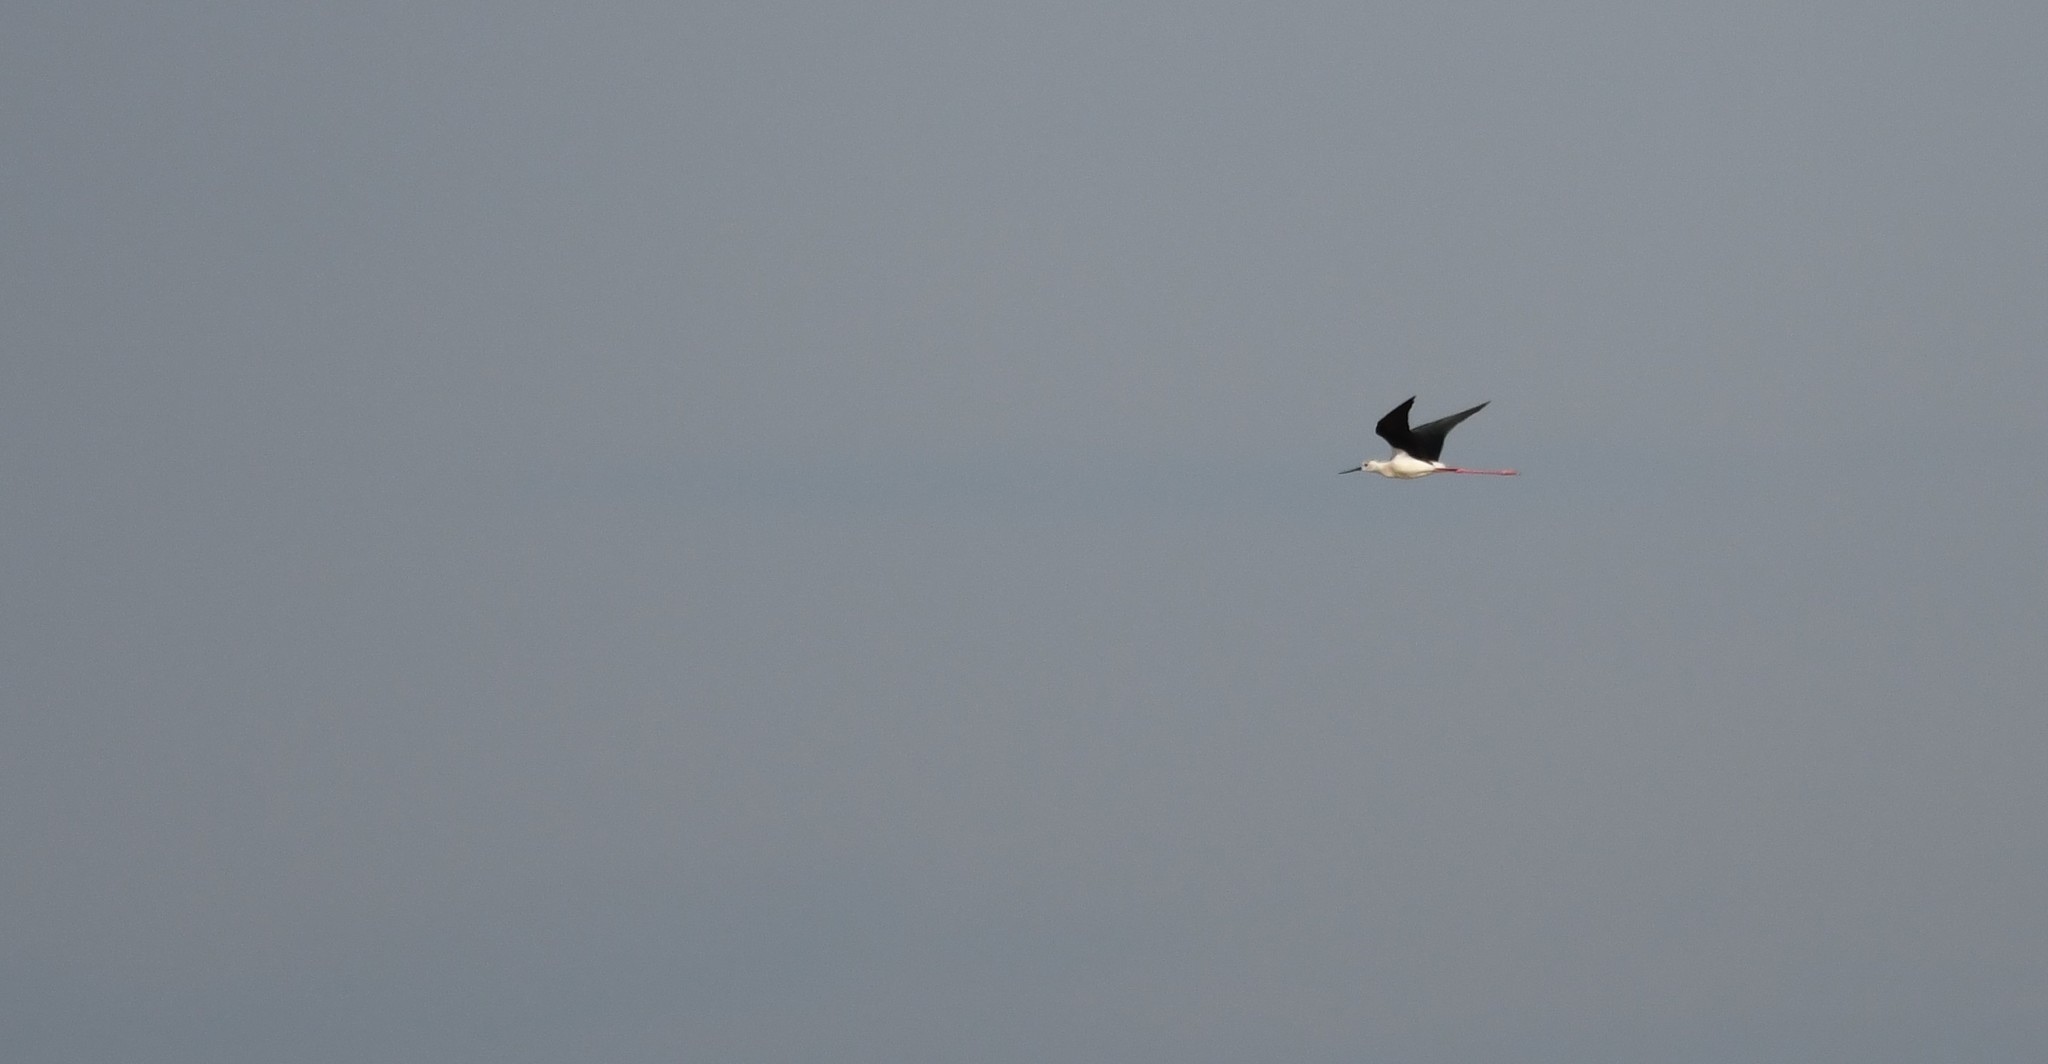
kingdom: Animalia
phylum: Chordata
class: Aves
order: Charadriiformes
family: Recurvirostridae
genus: Himantopus
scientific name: Himantopus himantopus
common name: Black-winged stilt
